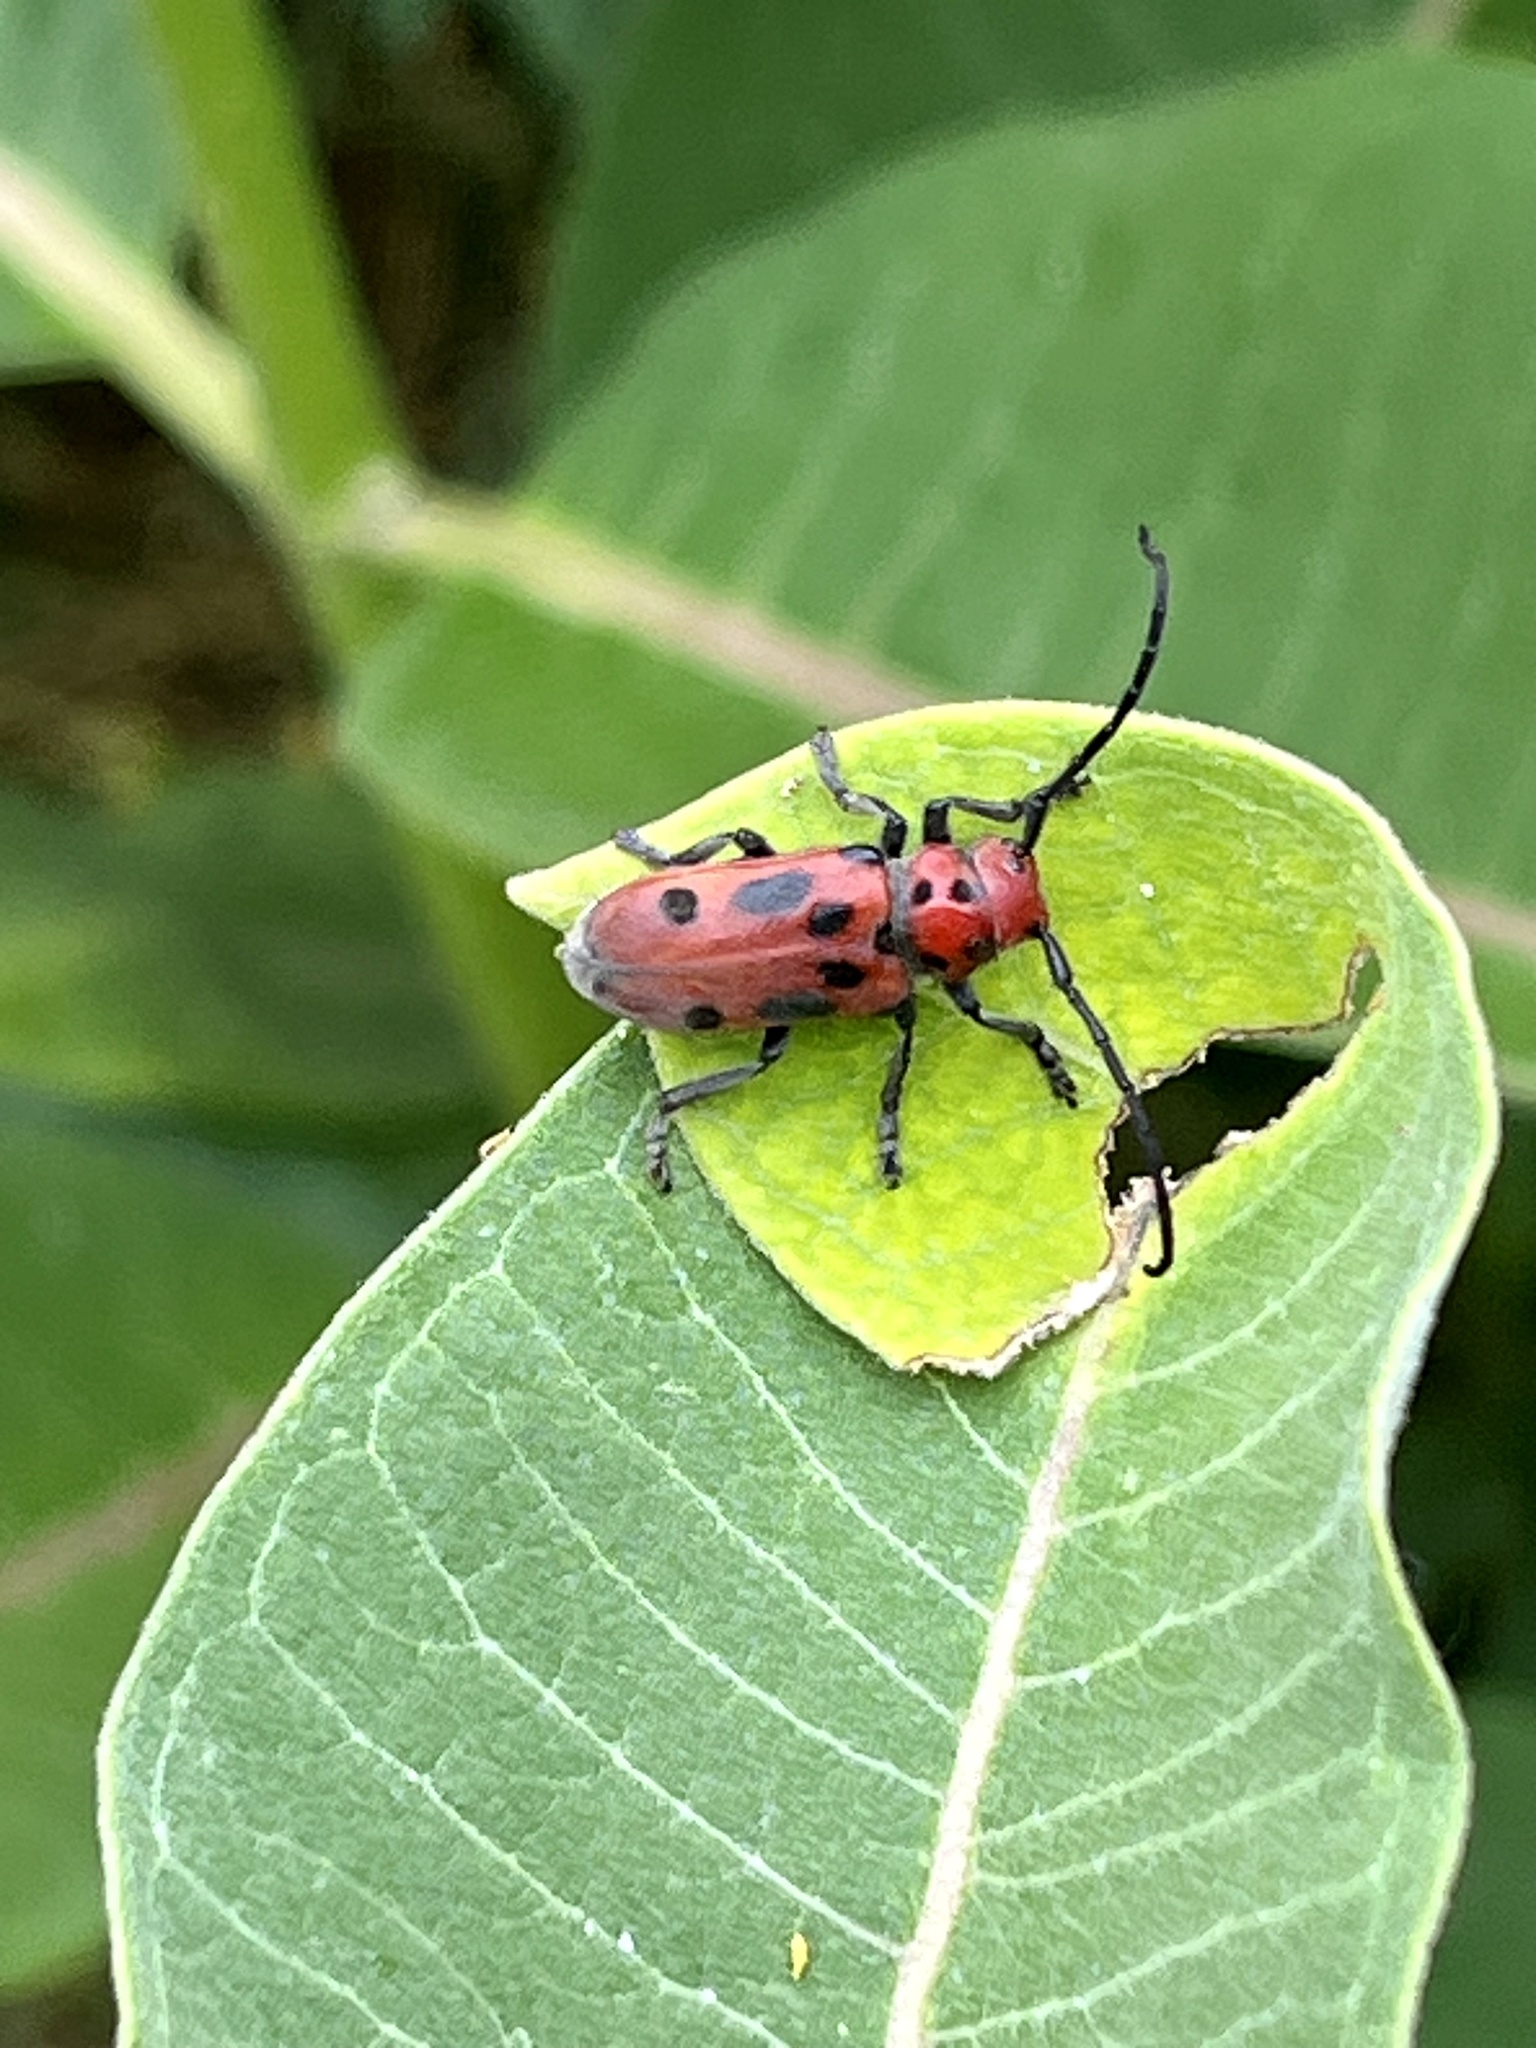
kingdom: Animalia
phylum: Arthropoda
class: Insecta
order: Coleoptera
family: Cerambycidae
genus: Tetraopes
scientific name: Tetraopes tetrophthalmus
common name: Red milkweed beetle
